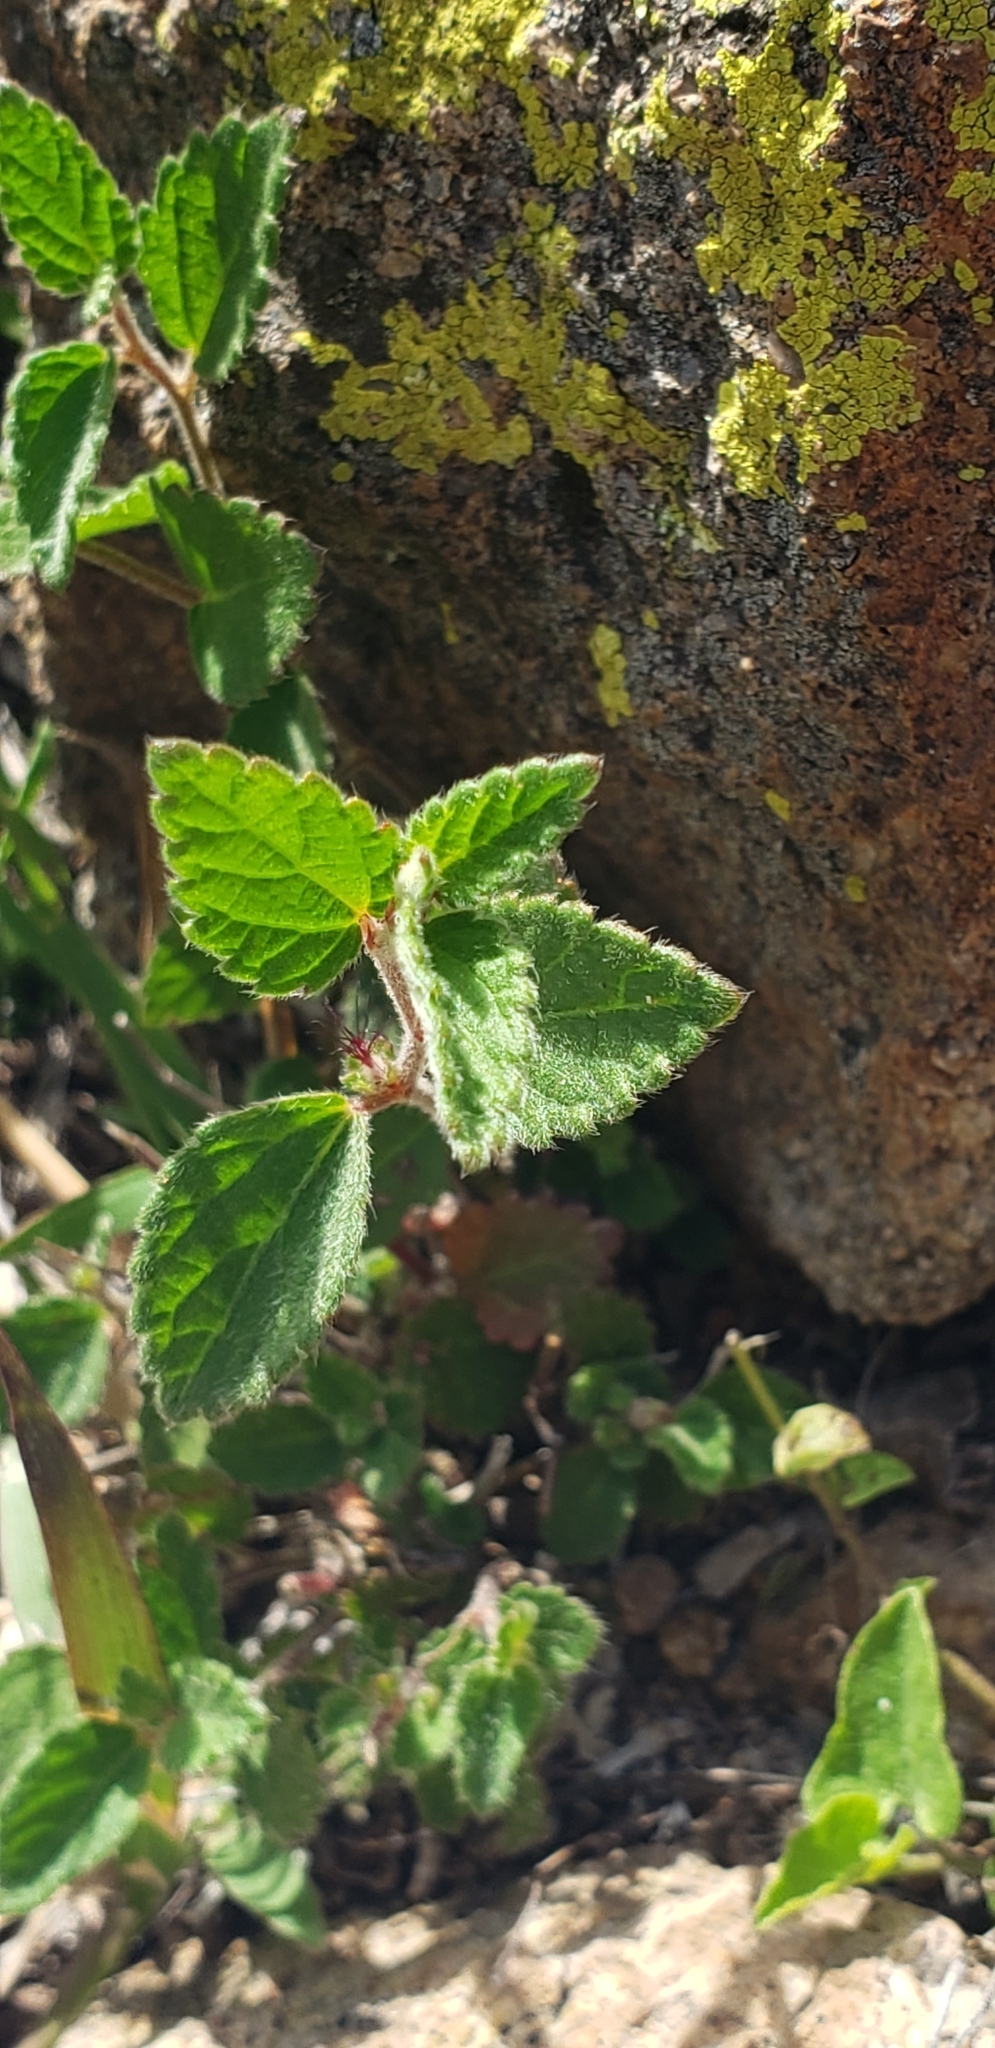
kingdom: Plantae
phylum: Tracheophyta
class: Magnoliopsida
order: Malpighiales
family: Euphorbiaceae
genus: Acalypha
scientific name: Acalypha phleoides
